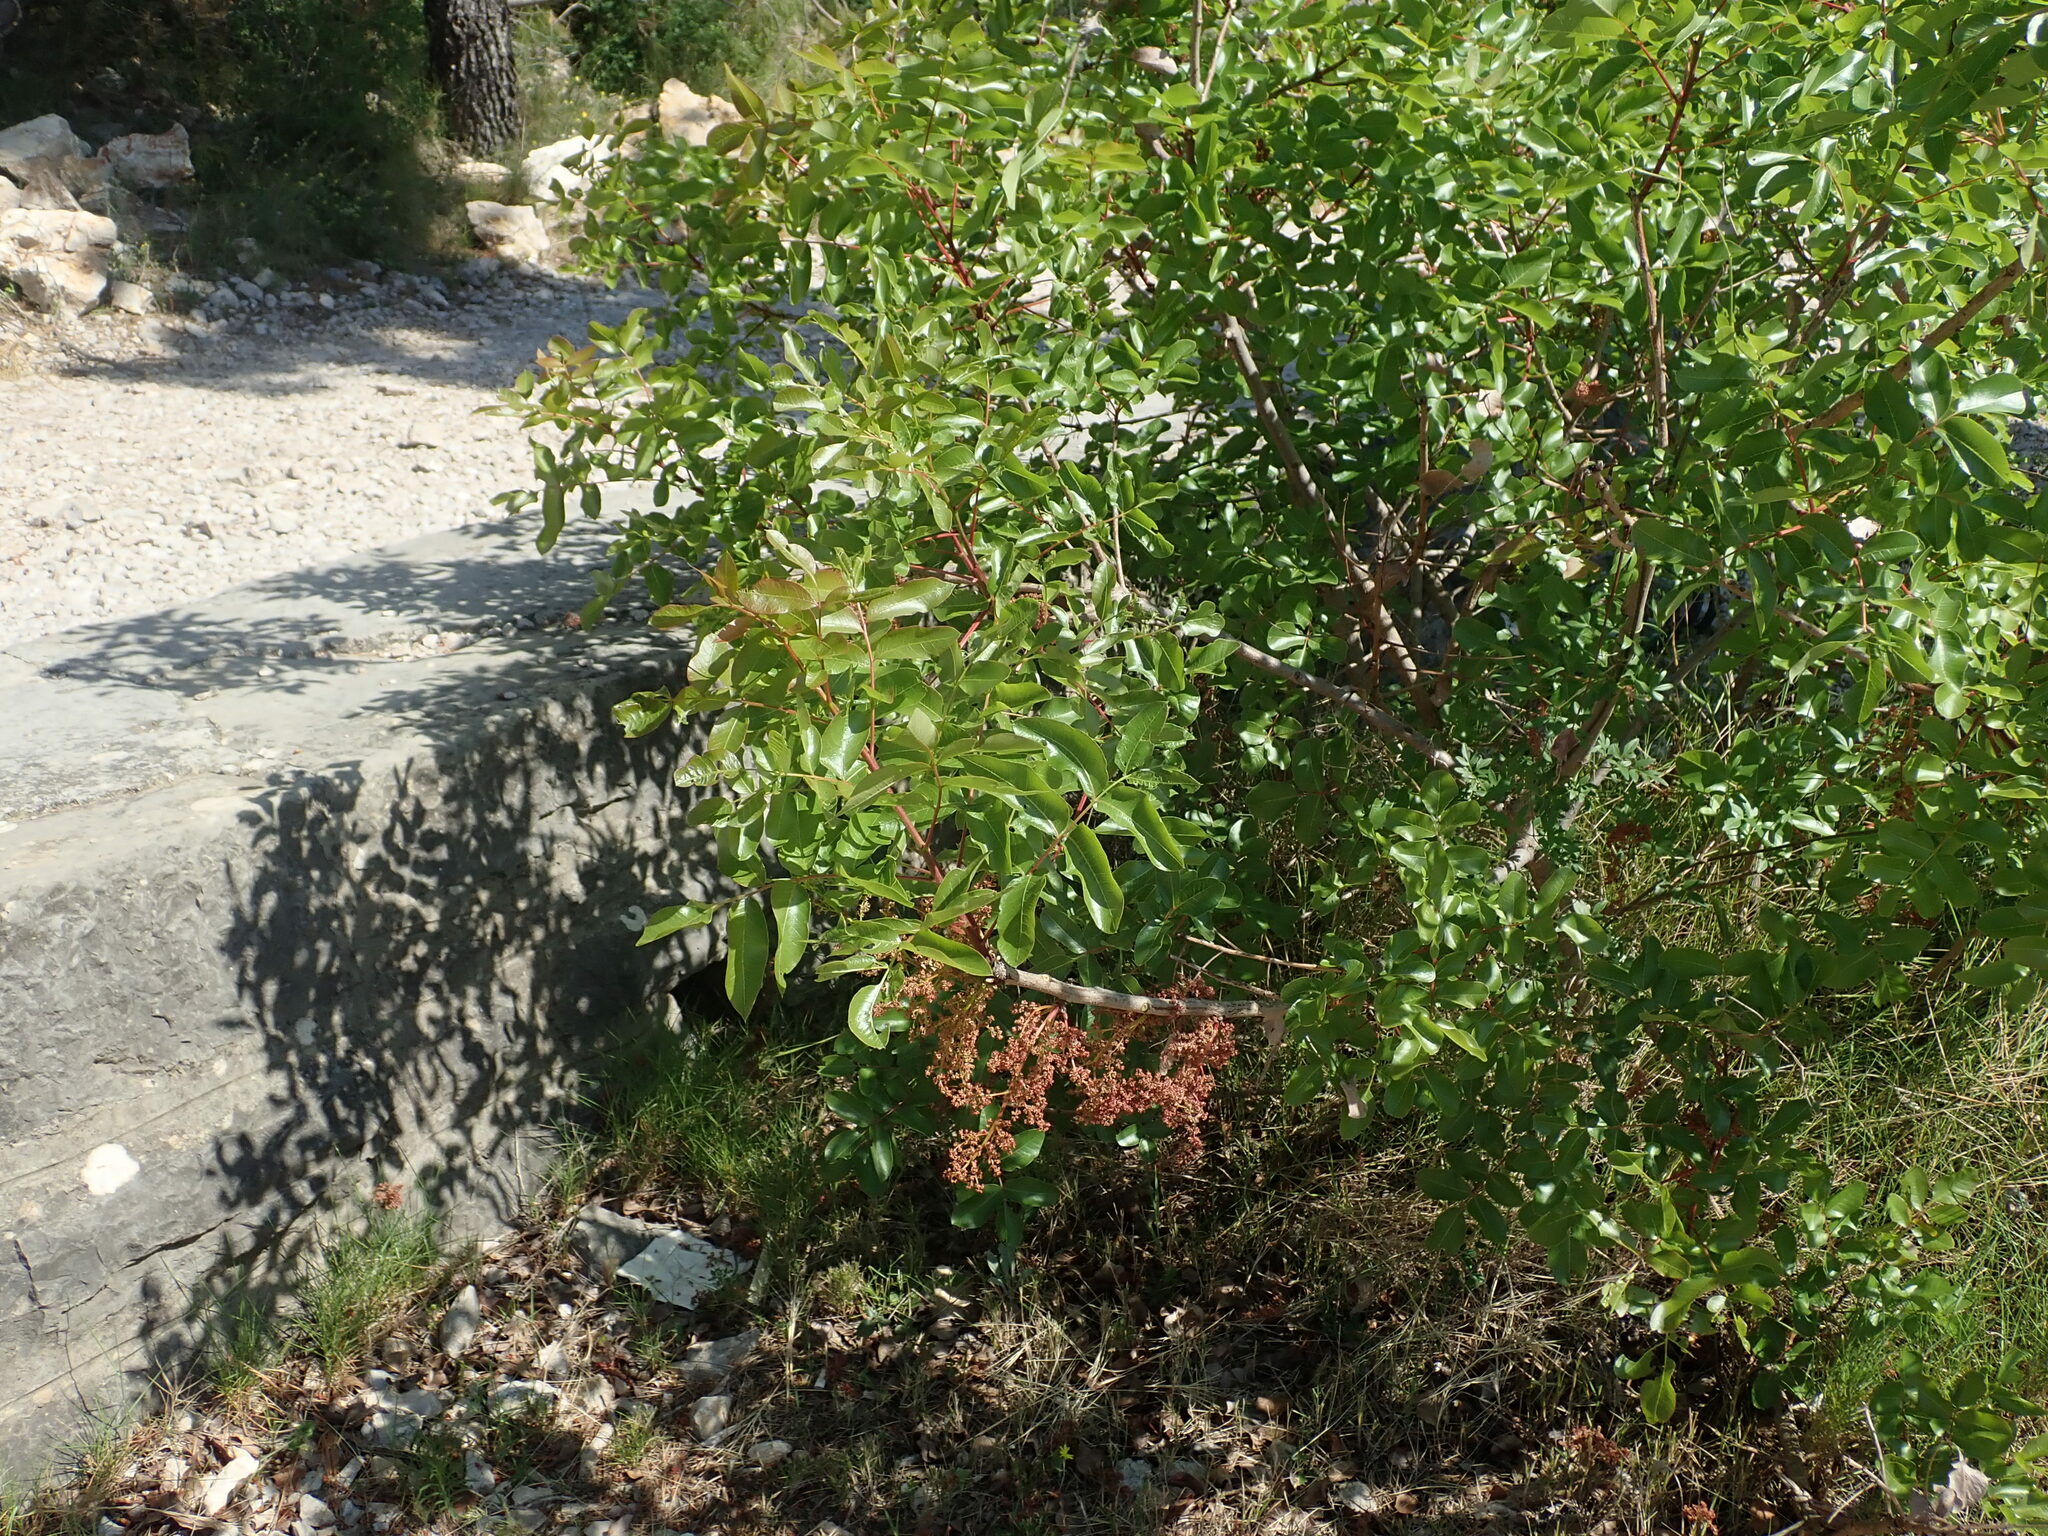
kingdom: Plantae
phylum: Tracheophyta
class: Magnoliopsida
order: Sapindales
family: Anacardiaceae
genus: Pistacia
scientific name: Pistacia terebinthus
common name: Terebinth
